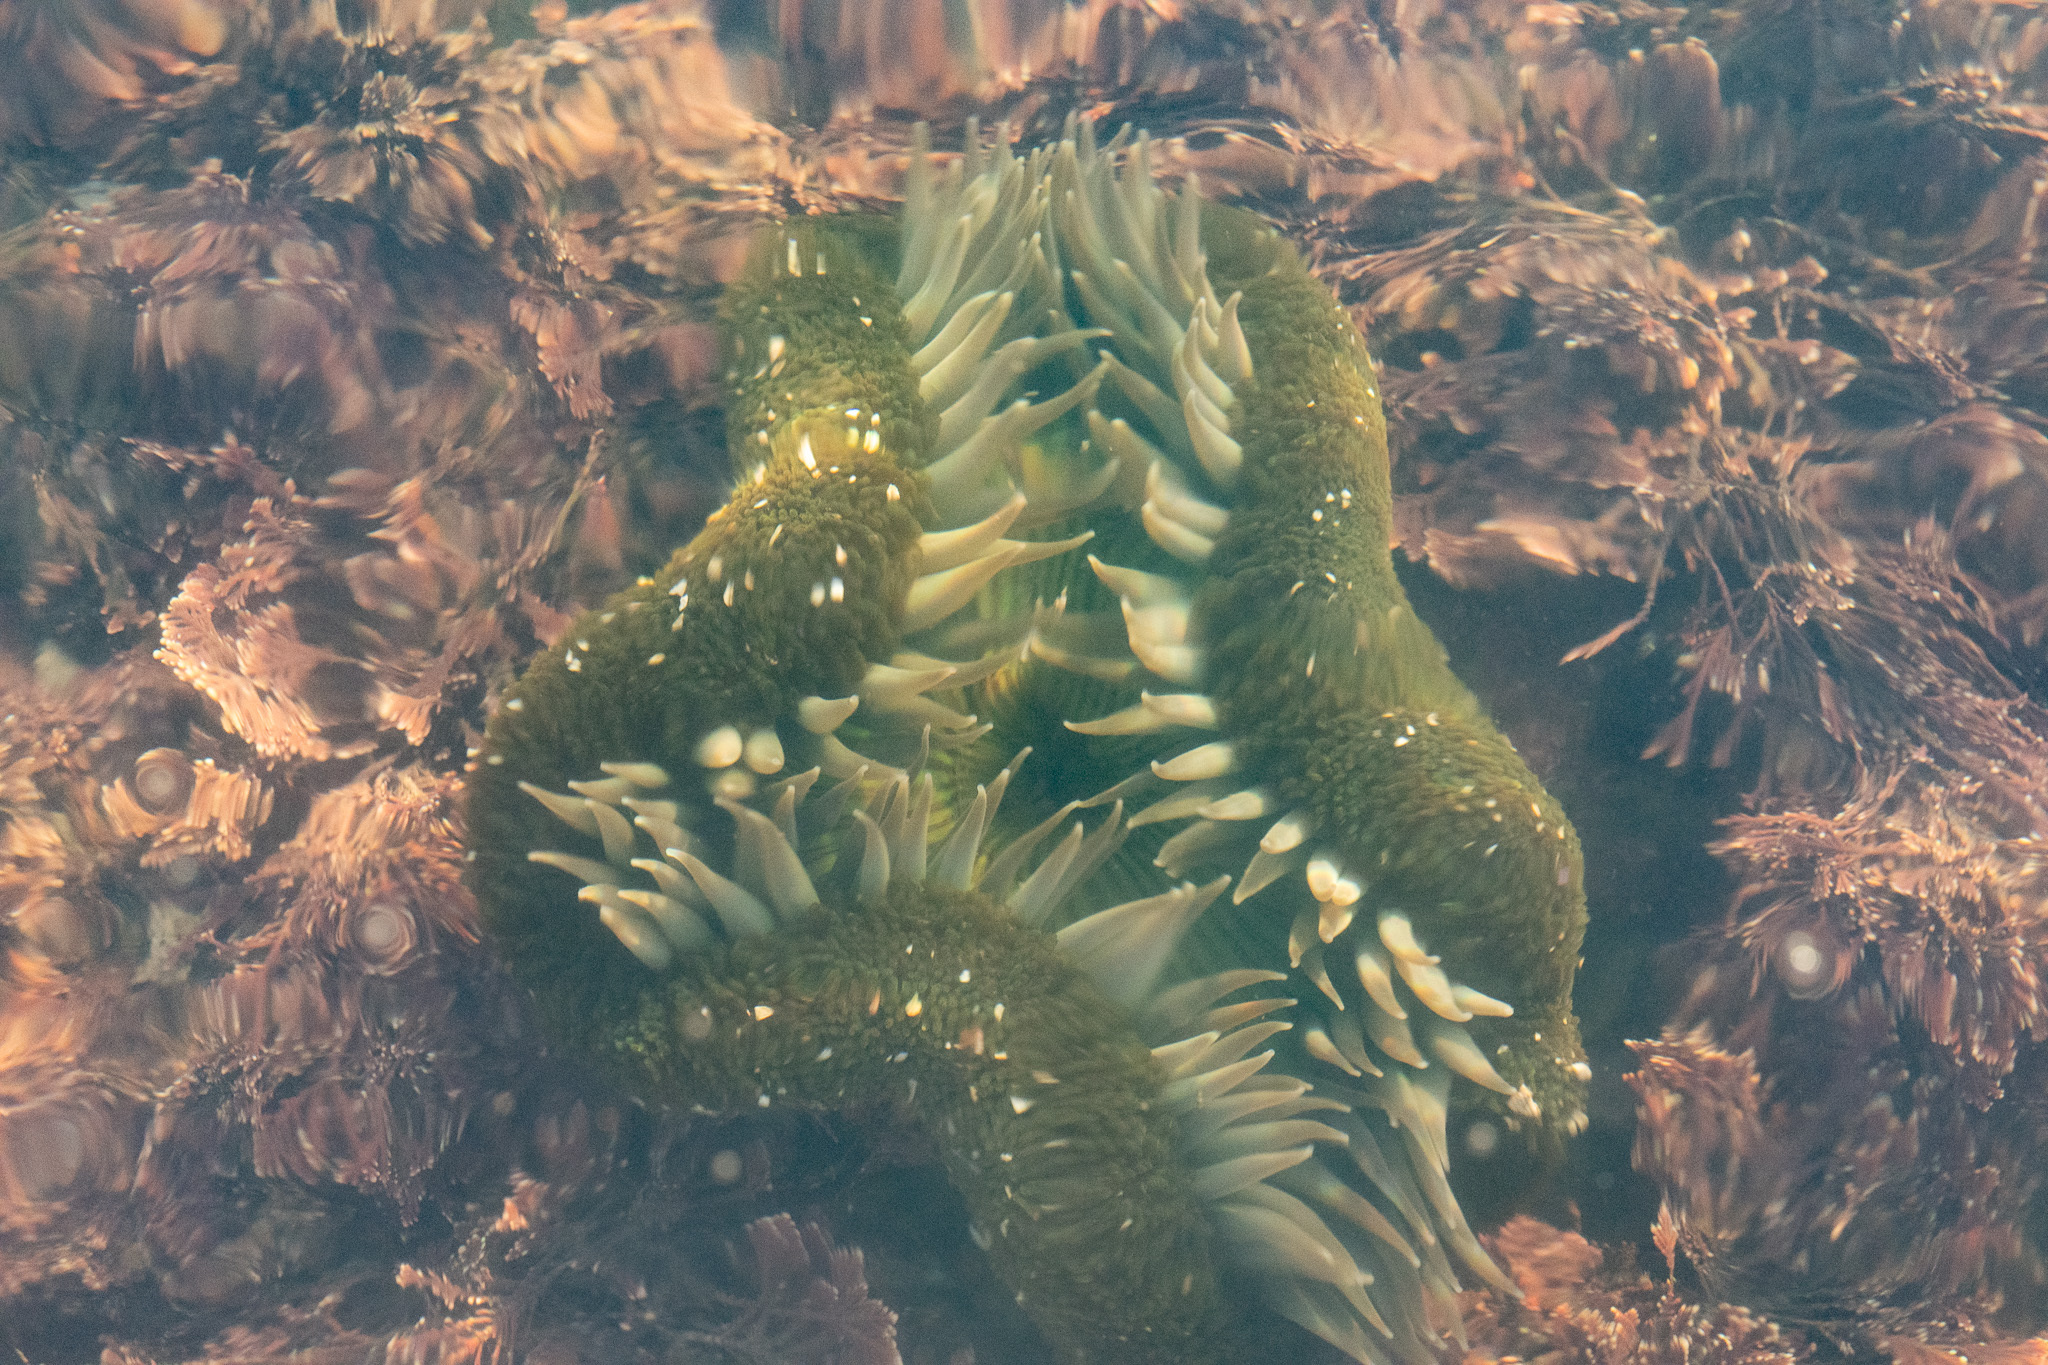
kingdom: Animalia
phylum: Cnidaria
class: Anthozoa
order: Actiniaria
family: Actiniidae
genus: Anthopleura
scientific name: Anthopleura sola
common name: Sun anemone
